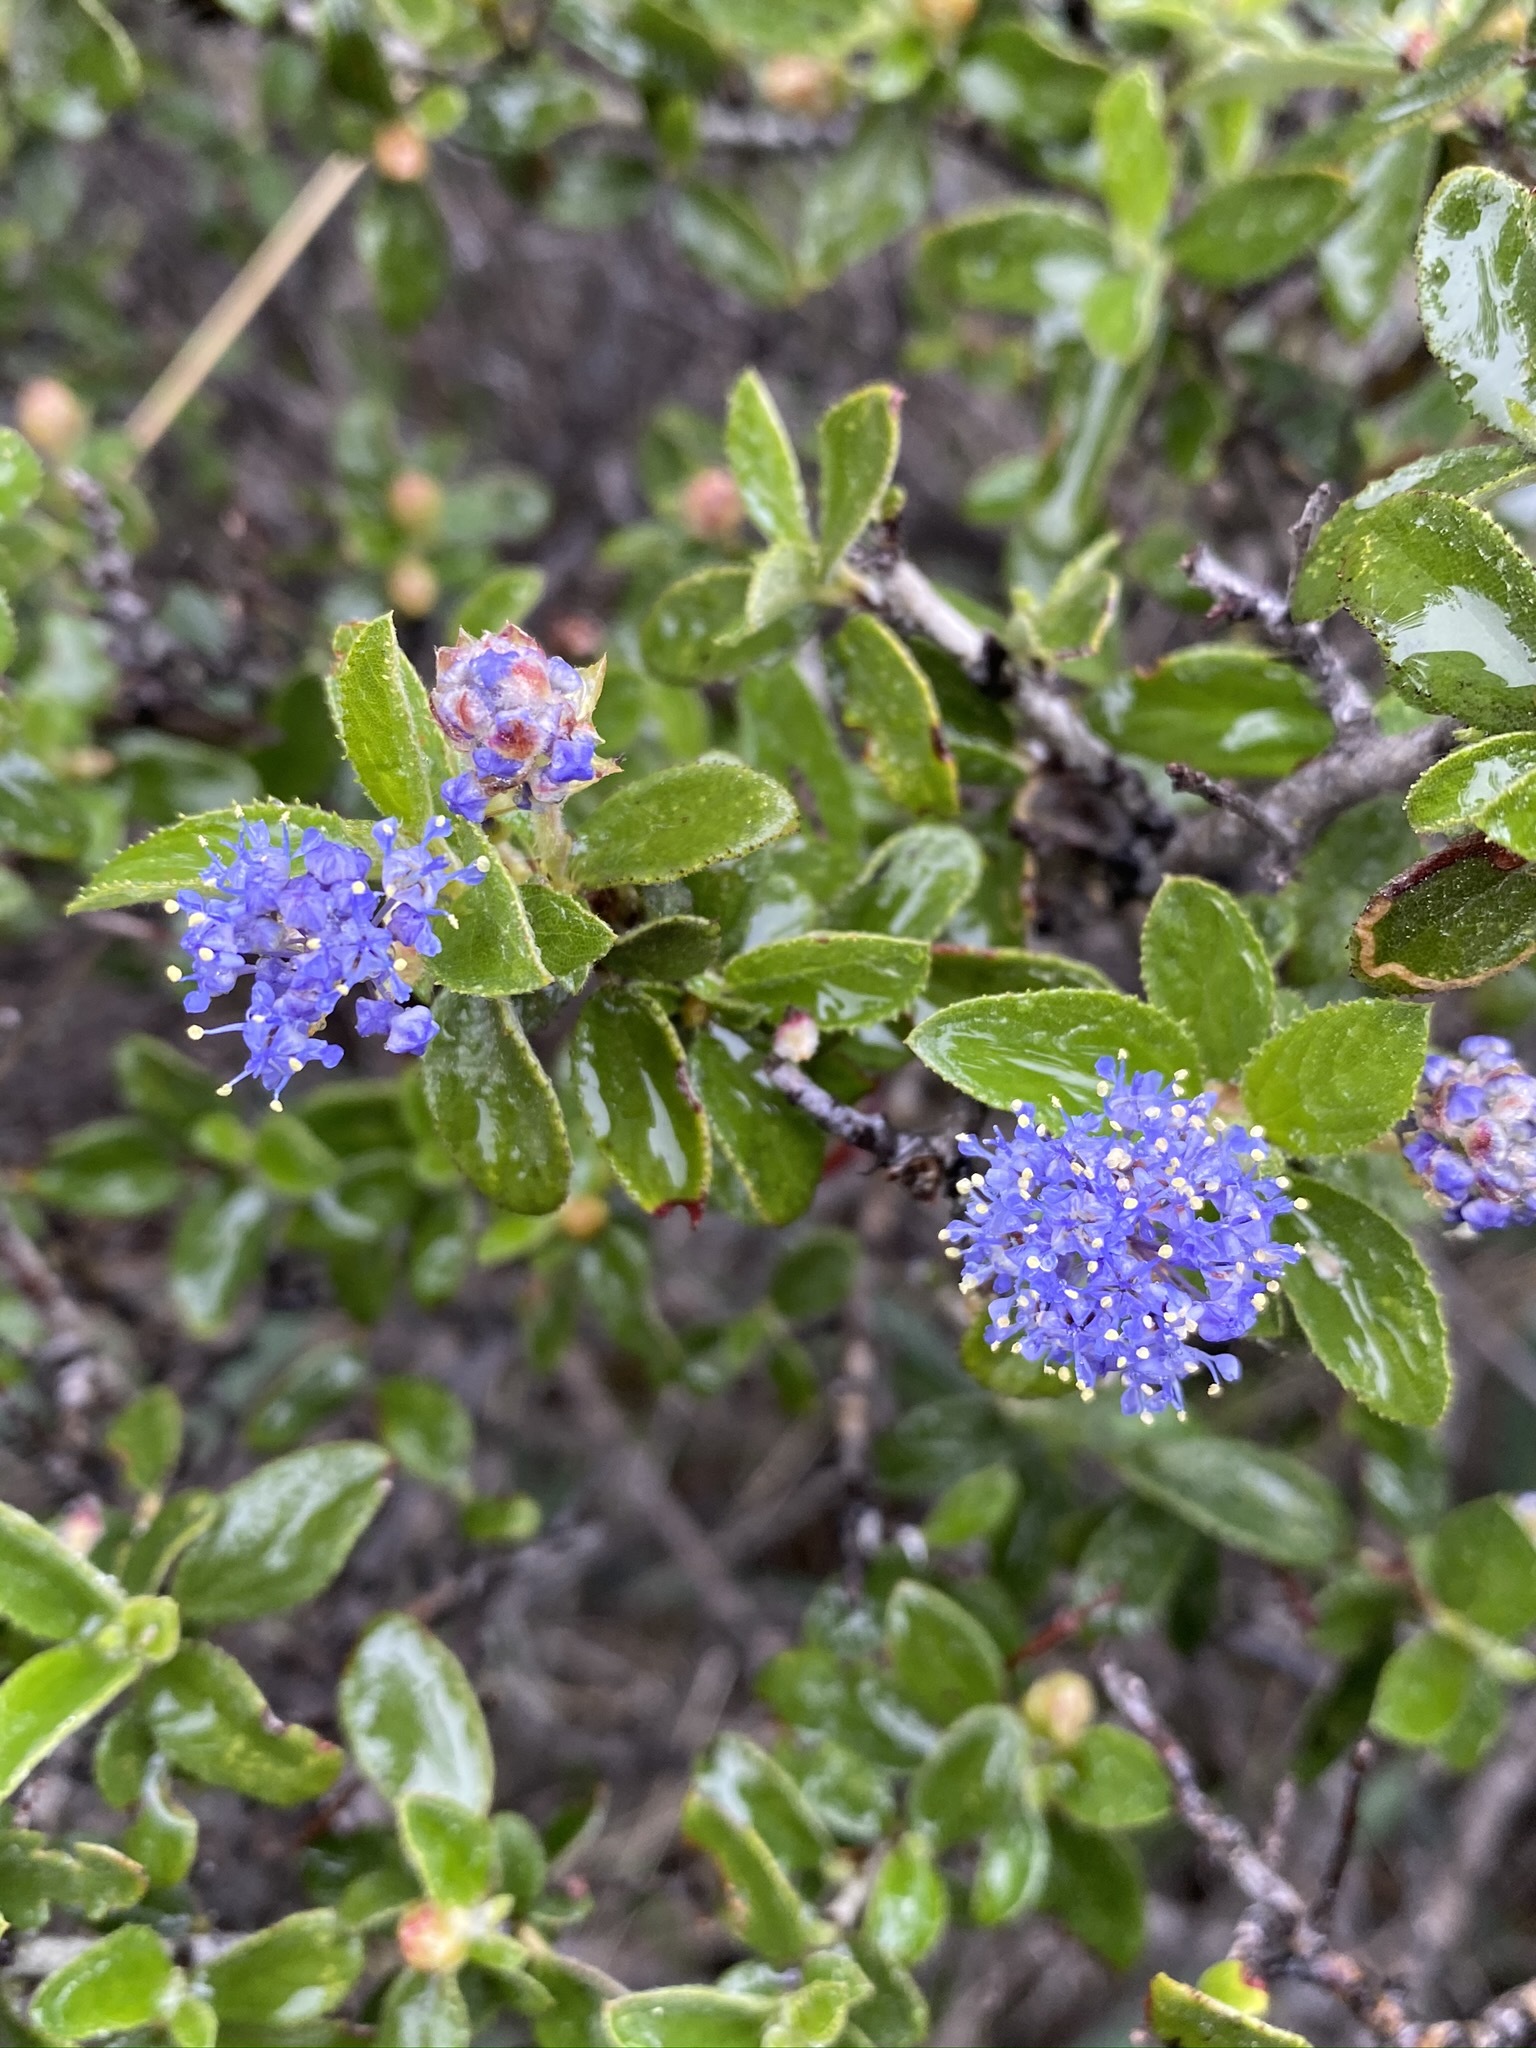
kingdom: Plantae
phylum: Tracheophyta
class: Magnoliopsida
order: Rosales
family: Rhamnaceae
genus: Ceanothus
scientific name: Ceanothus lemmonii
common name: Lemmon's ceanothus
